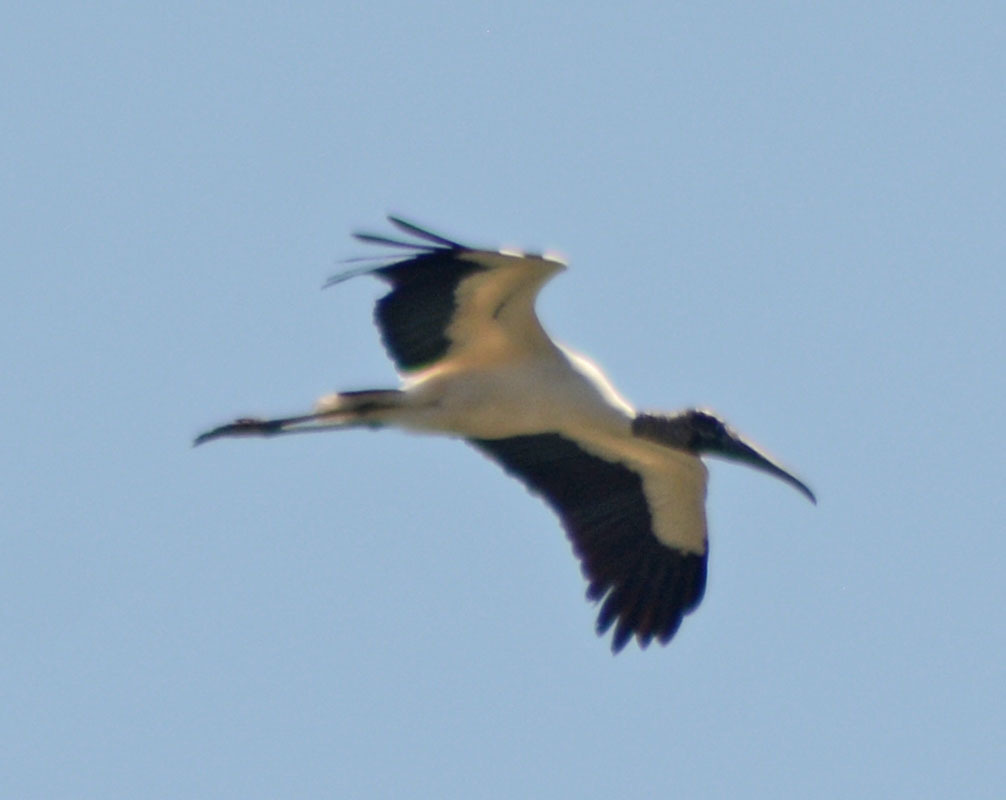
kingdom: Animalia
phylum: Chordata
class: Aves
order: Ciconiiformes
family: Ciconiidae
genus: Mycteria
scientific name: Mycteria americana
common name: Wood stork
